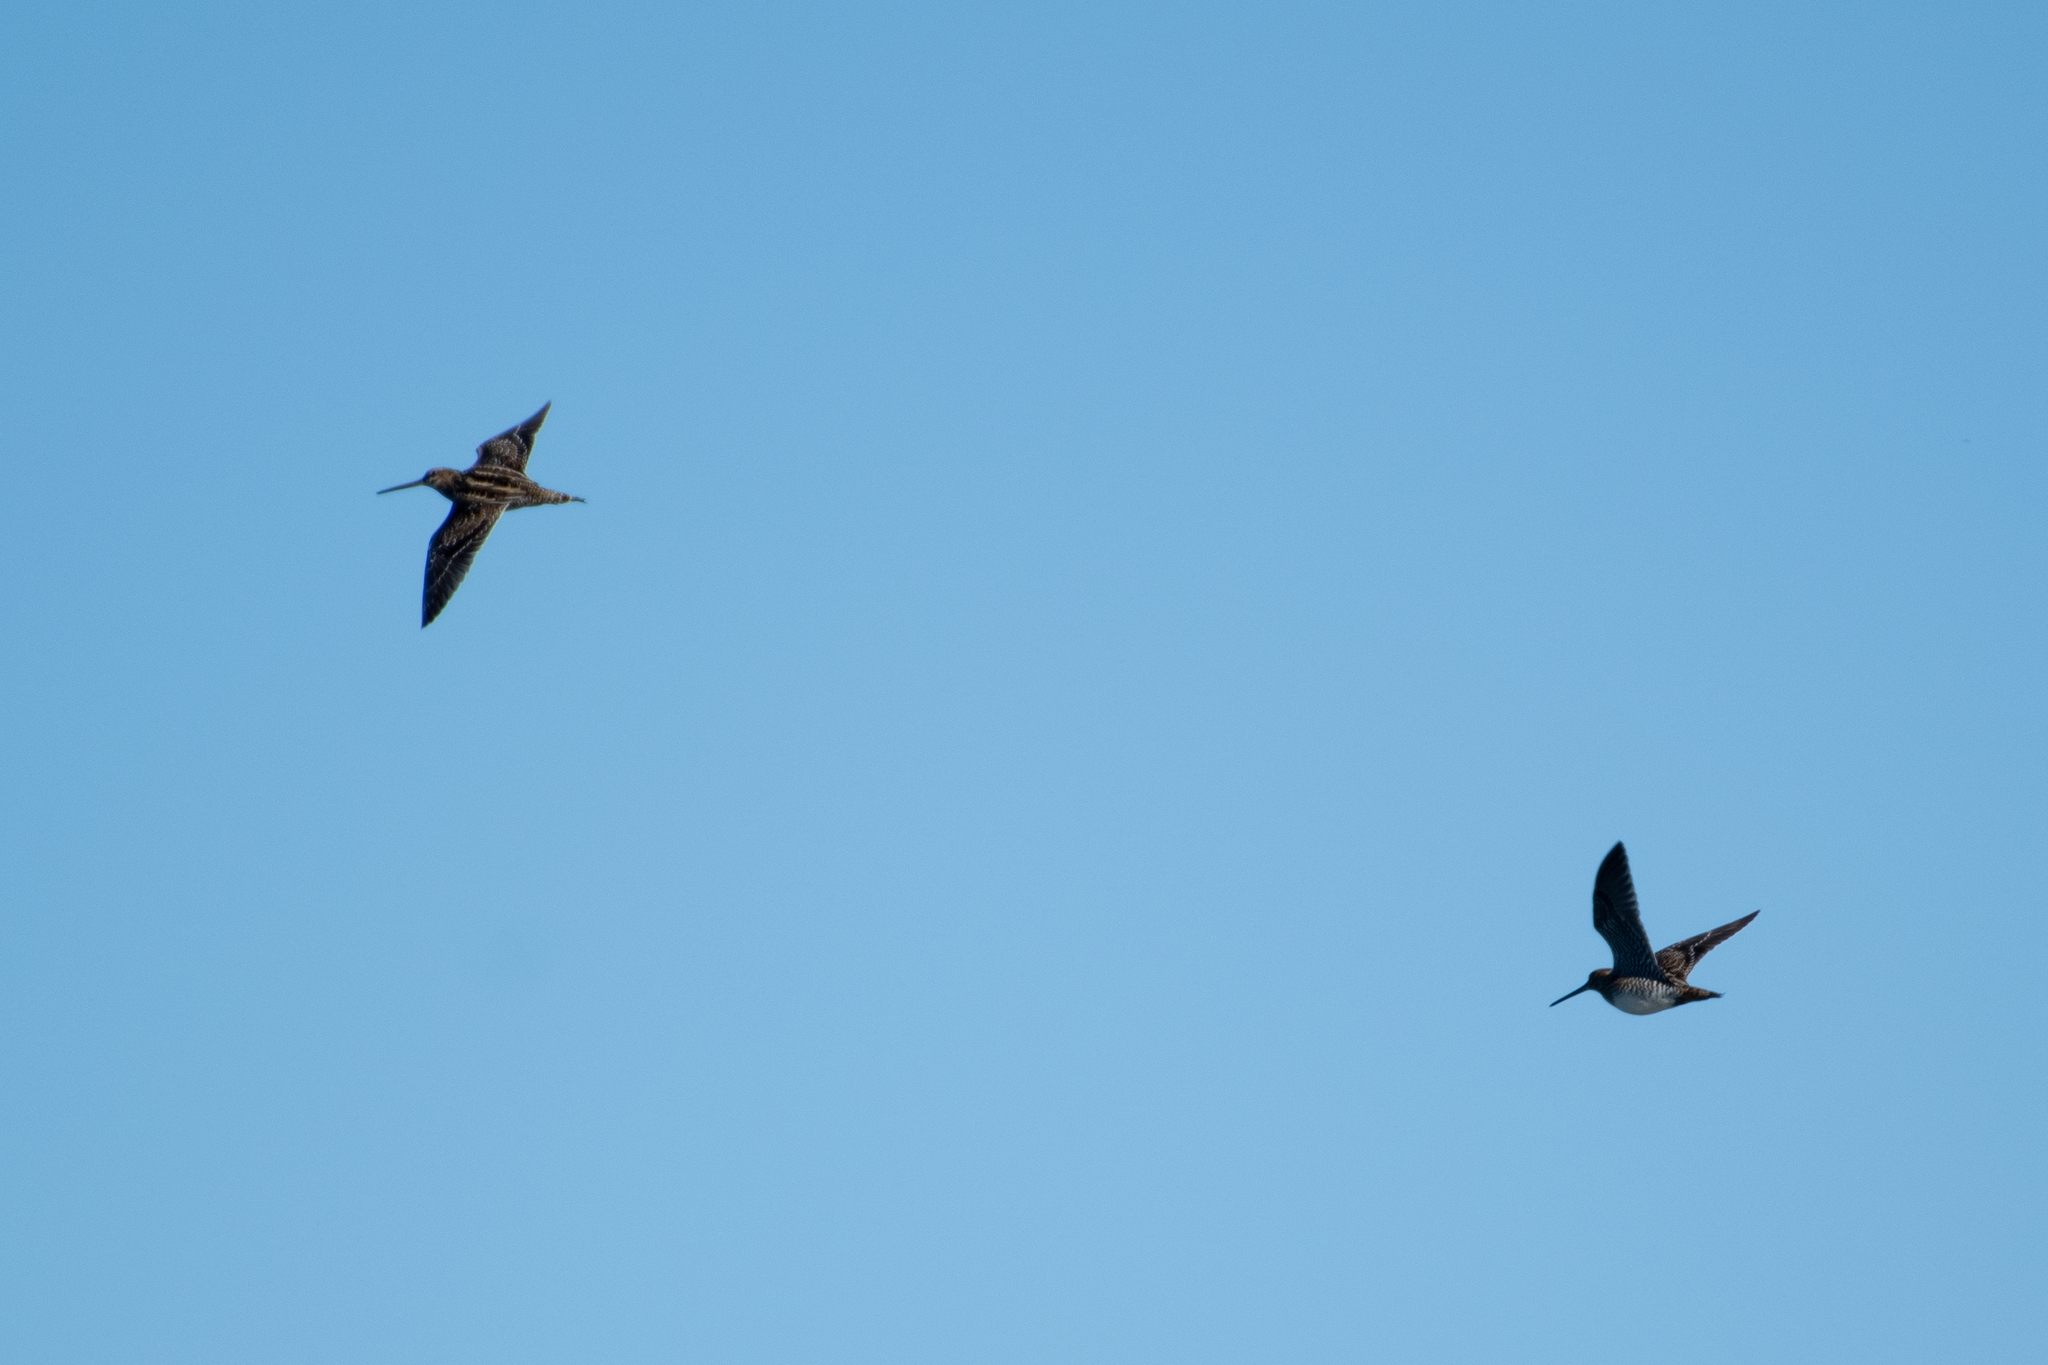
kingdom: Animalia
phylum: Chordata
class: Aves
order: Charadriiformes
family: Scolopacidae
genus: Gallinago
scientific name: Gallinago delicata
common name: Wilson's snipe
